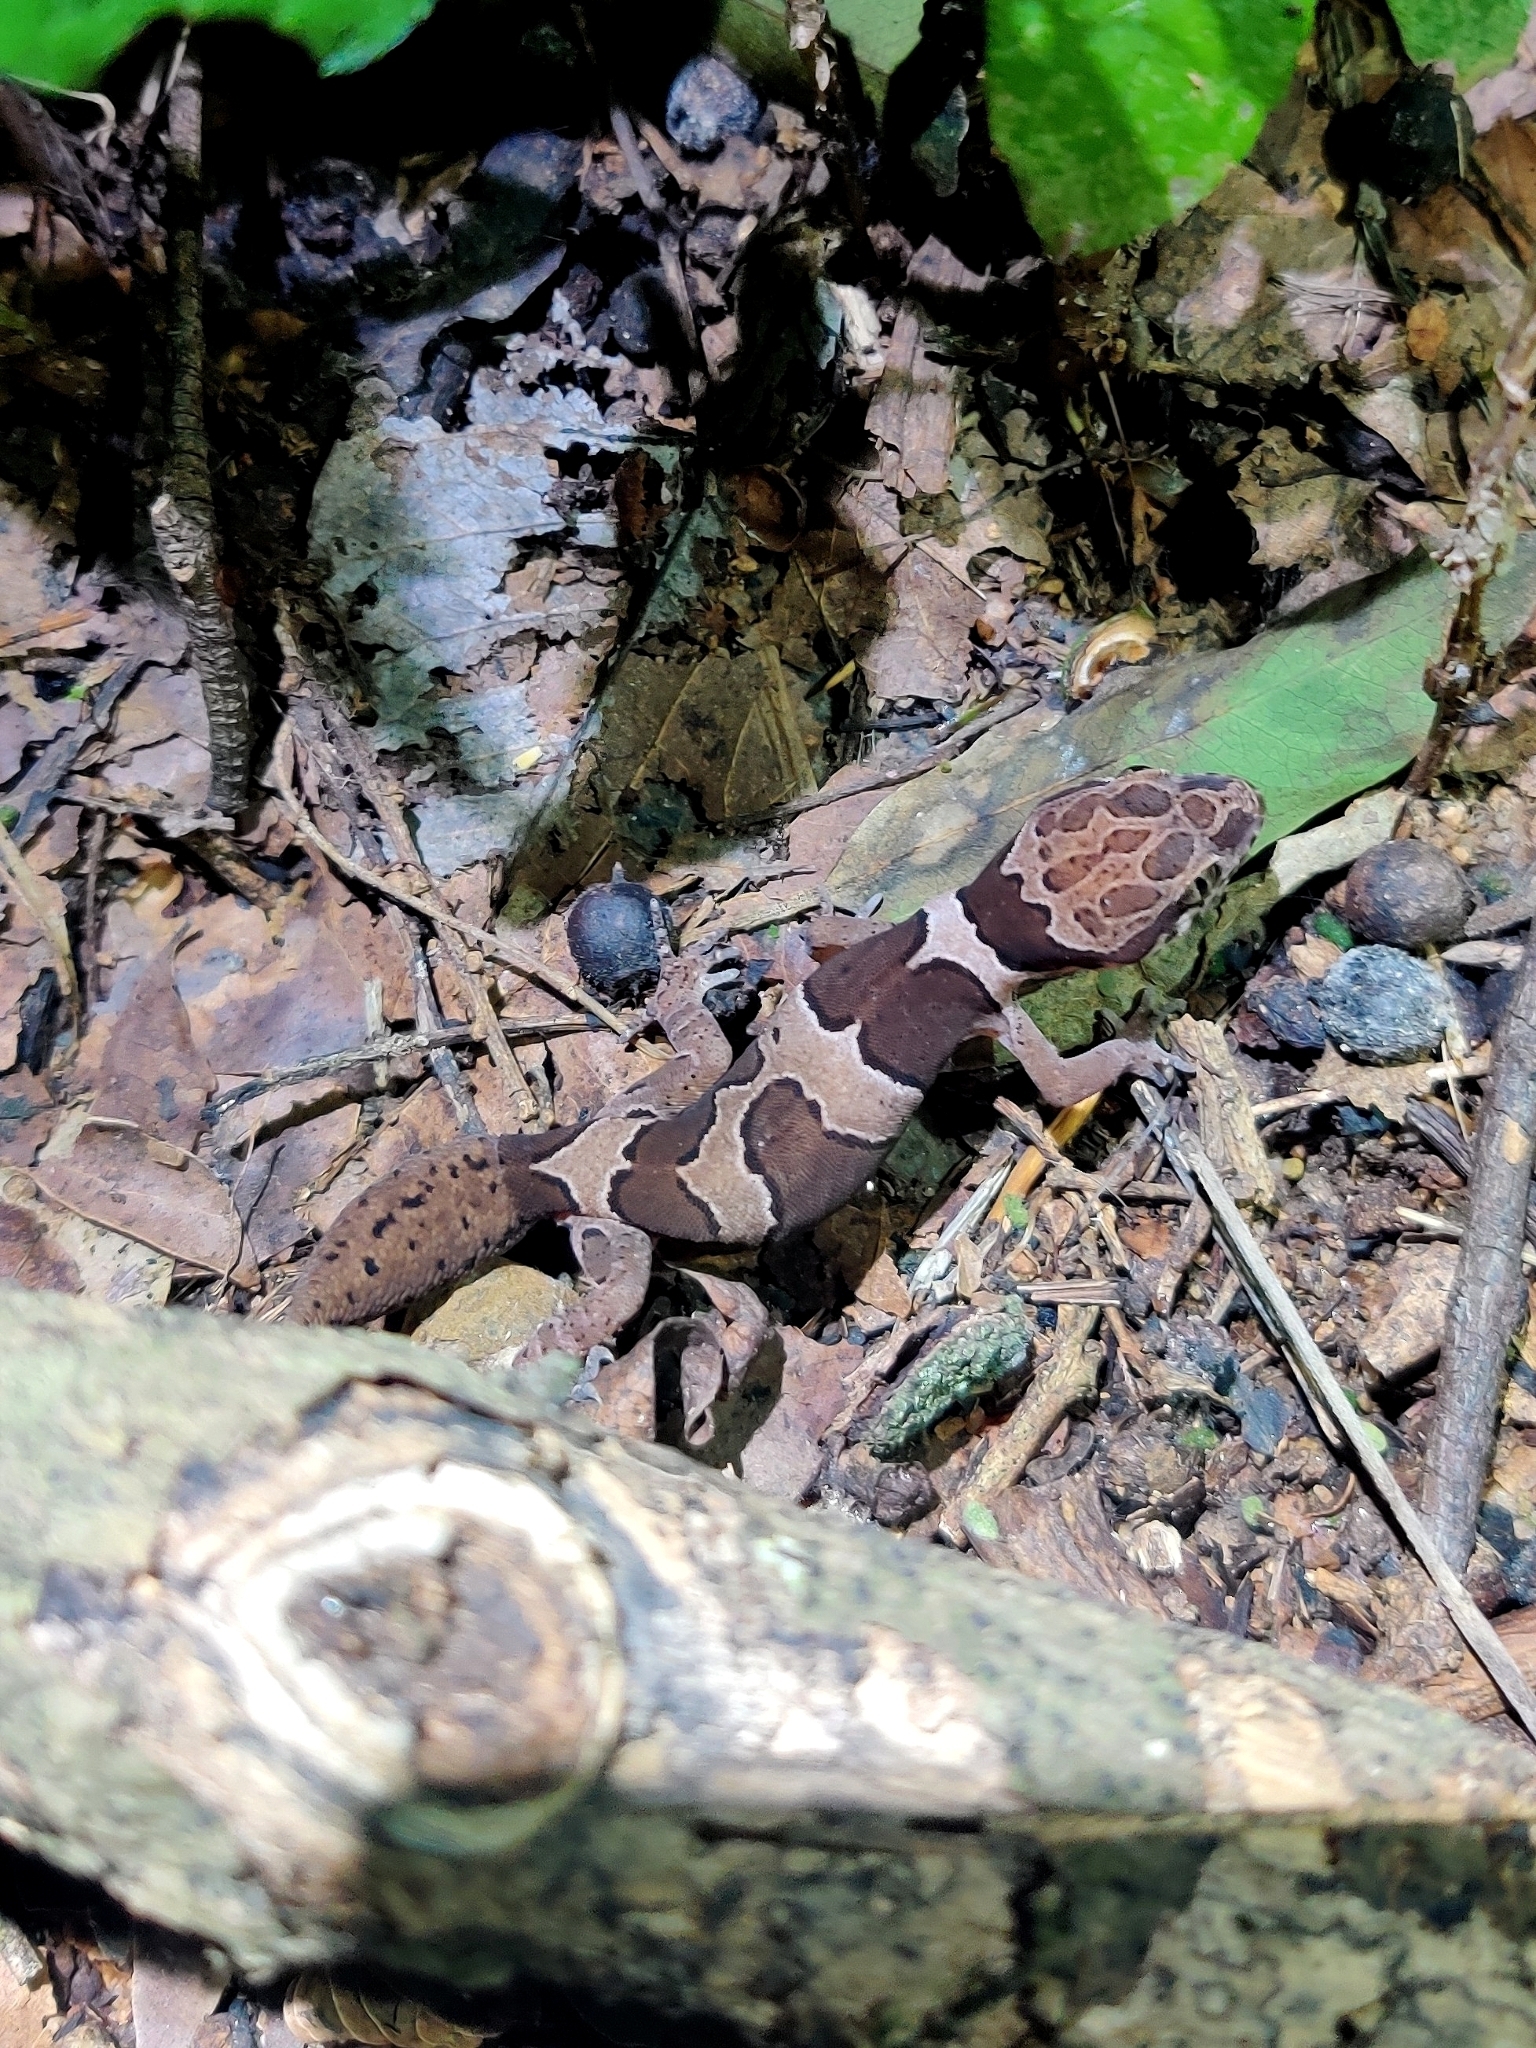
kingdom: Animalia
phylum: Chordata
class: Squamata
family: Gekkonidae
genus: Cyrtodactylus
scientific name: Cyrtodactylus collegalensis
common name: Forest spotted gecko
